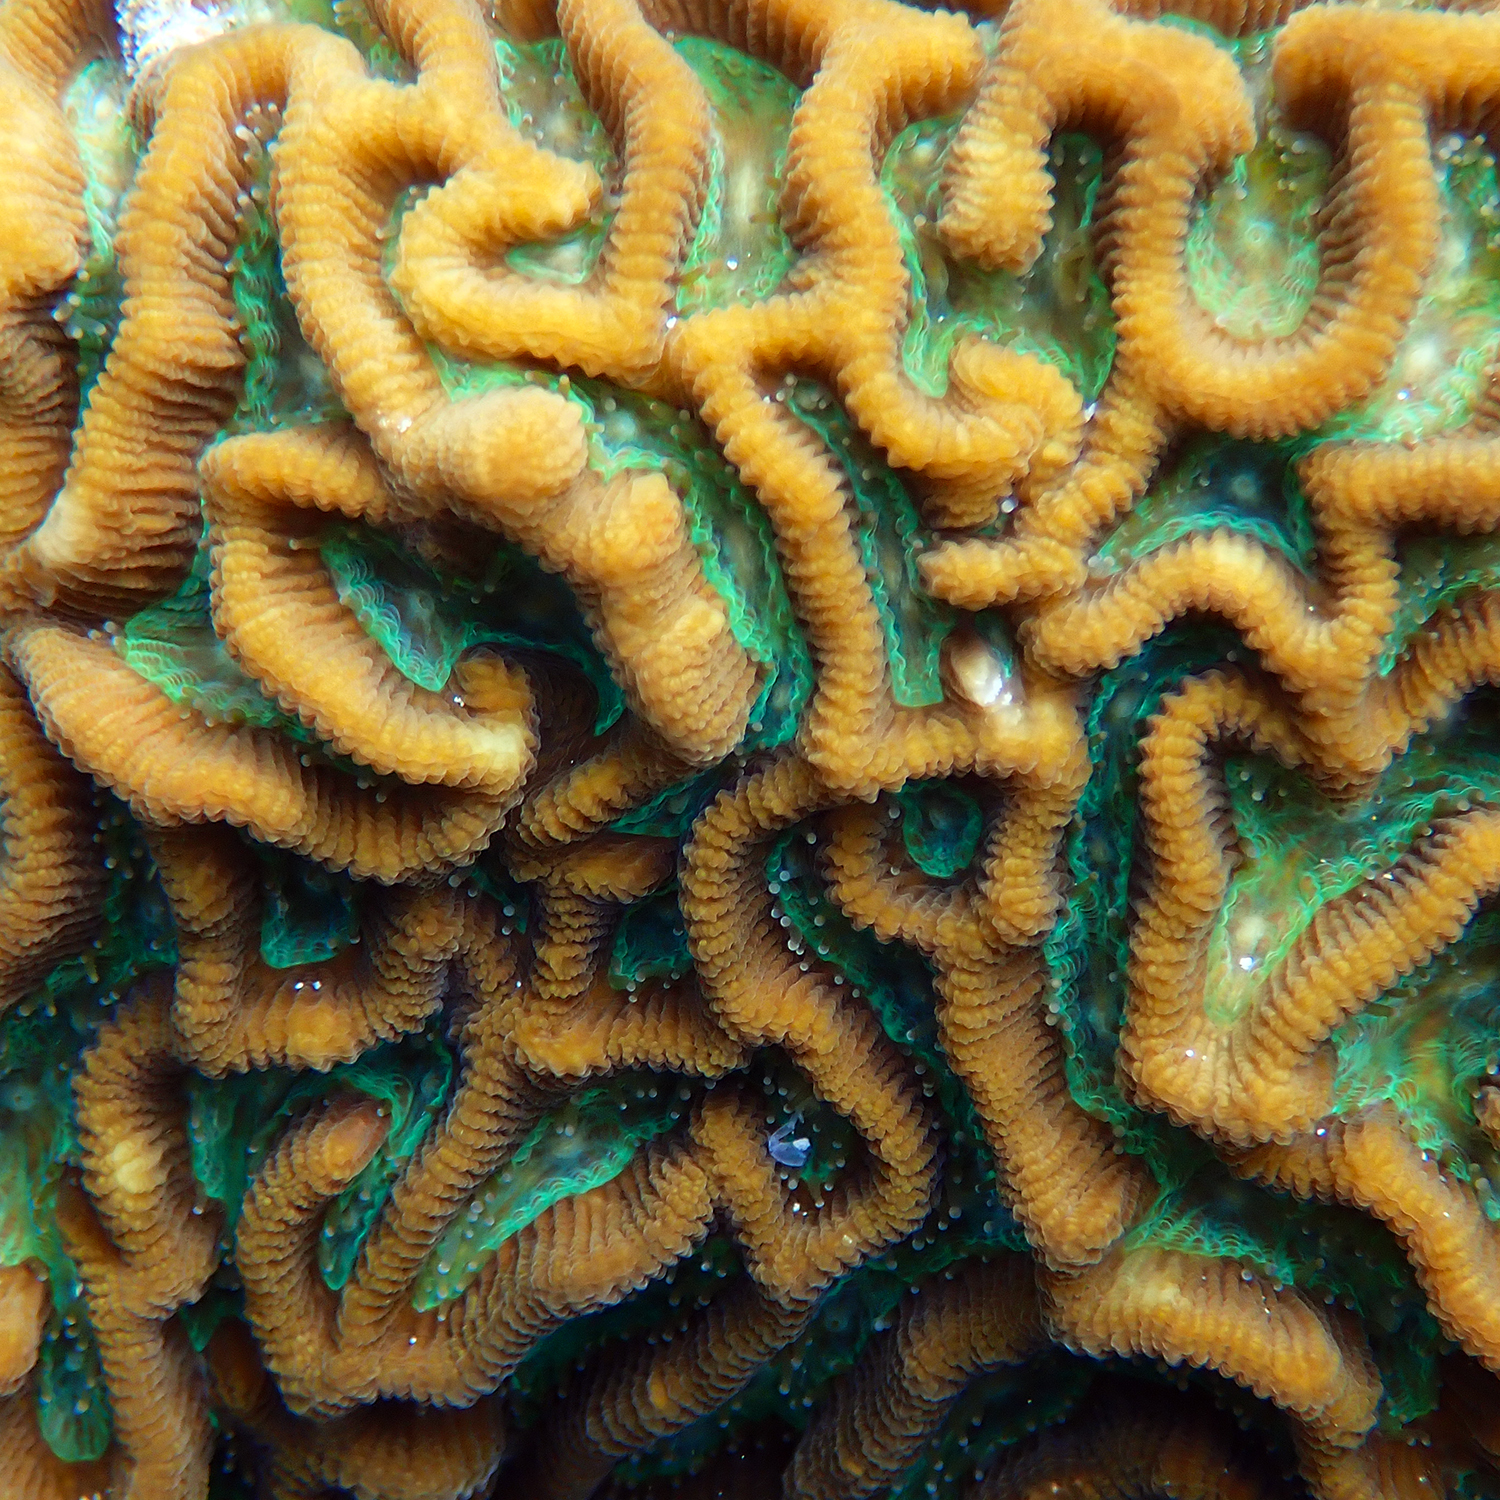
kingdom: Animalia
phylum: Cnidaria
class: Anthozoa
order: Scleractinia
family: Merulinidae
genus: Paragoniastrea
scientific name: Paragoniastrea australensis
